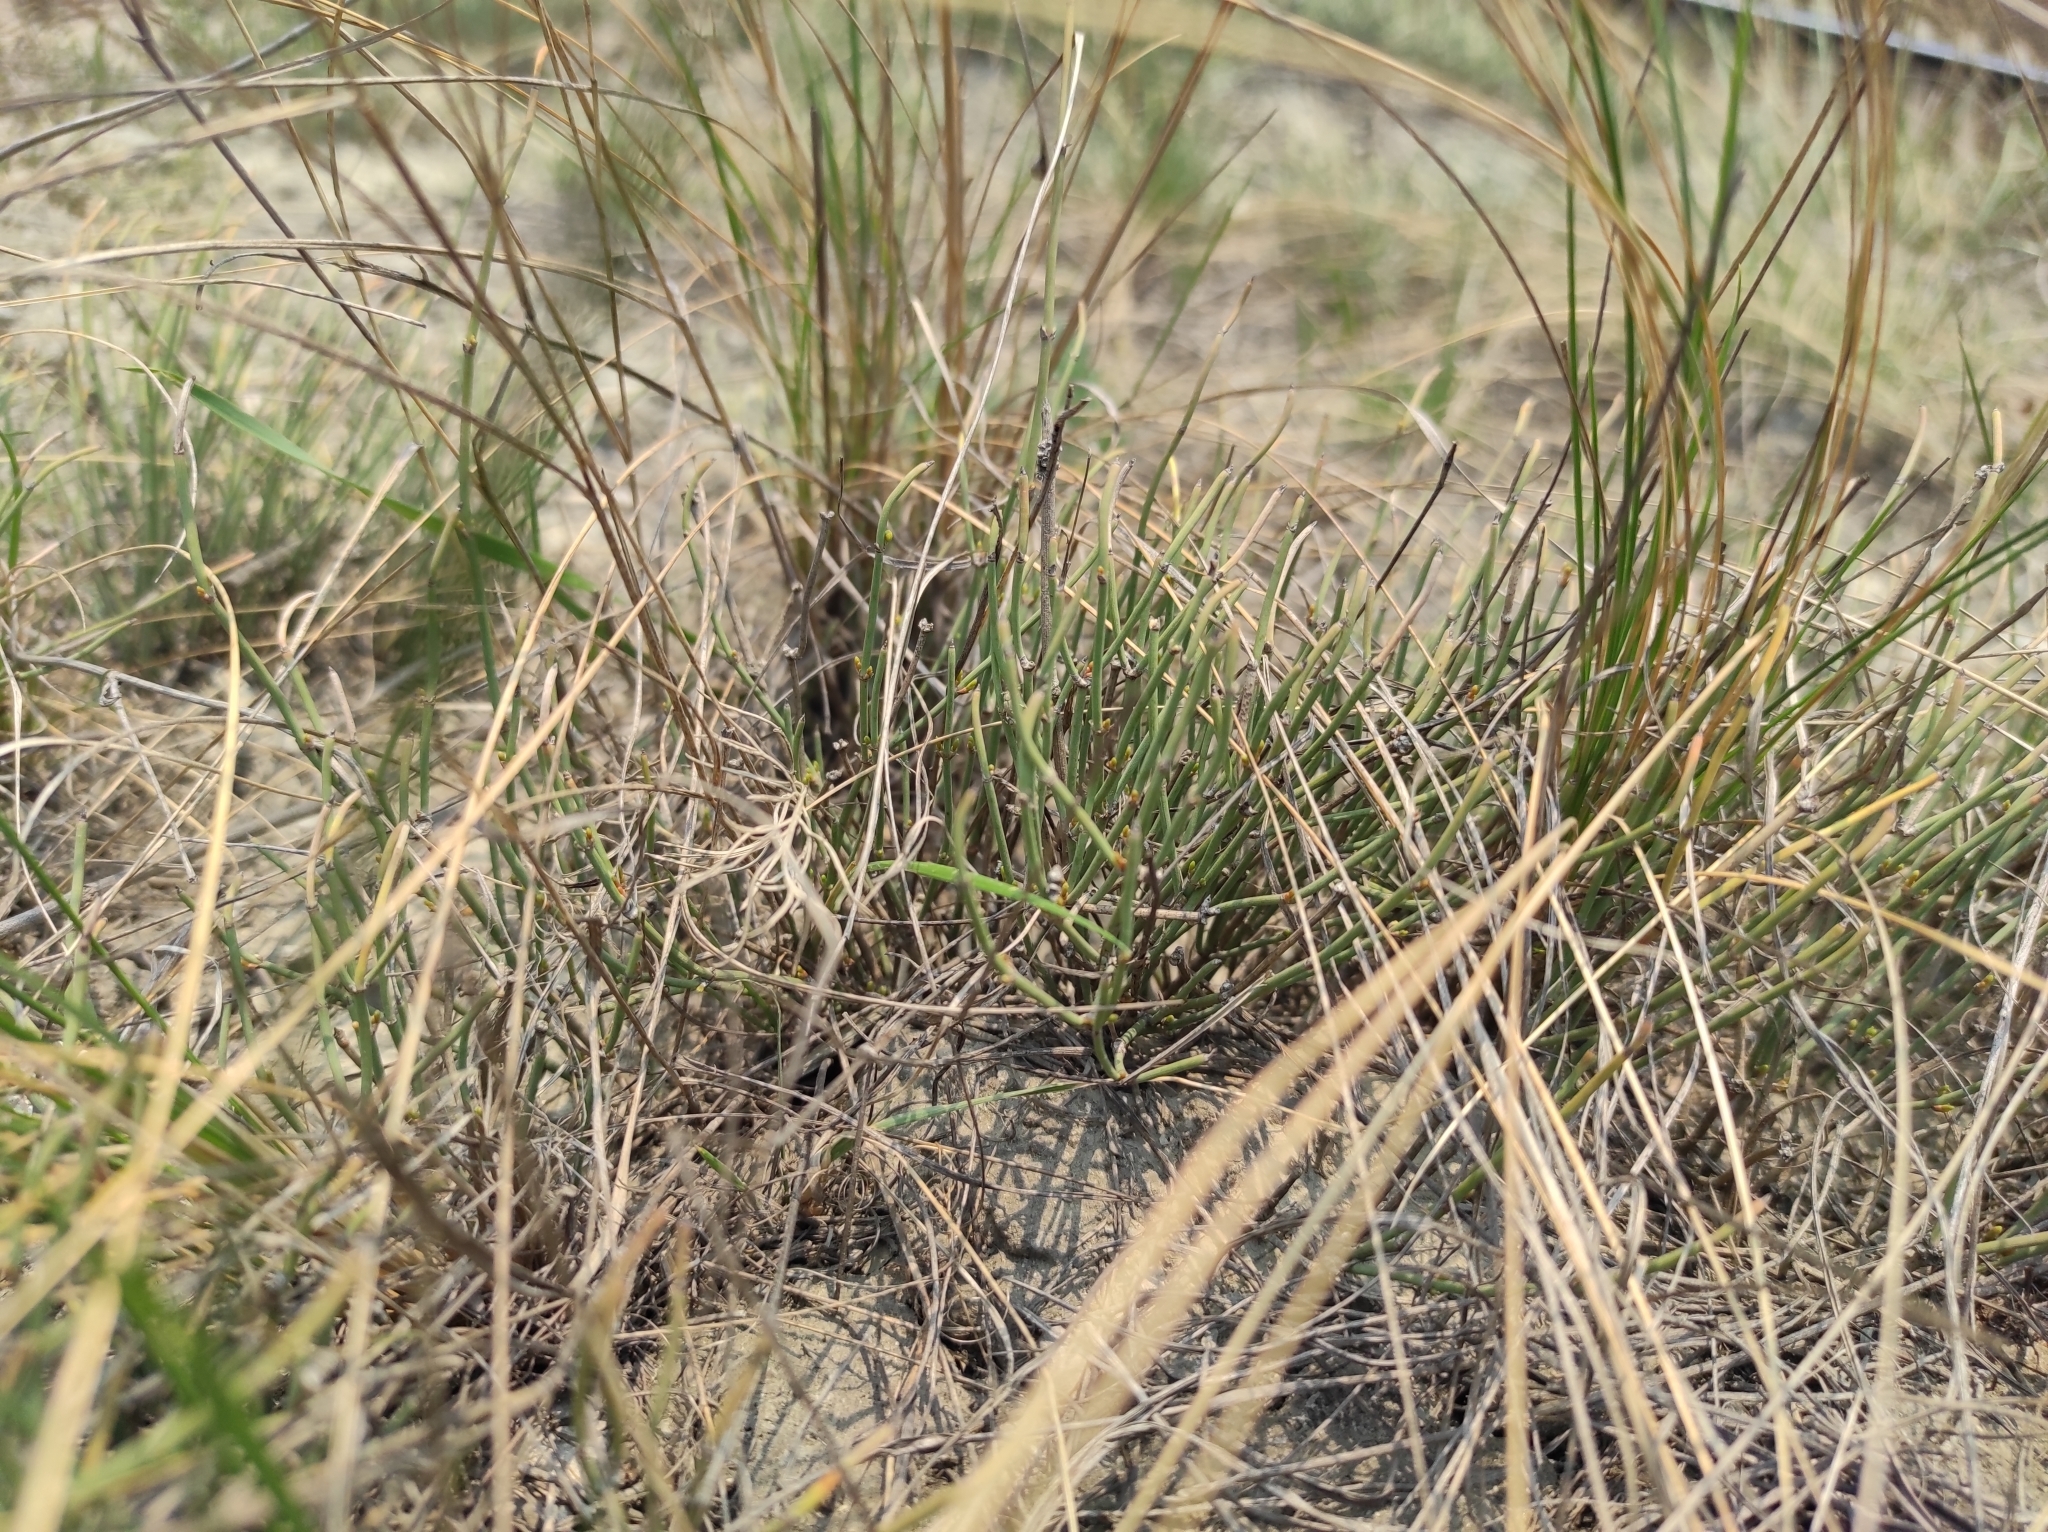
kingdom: Plantae
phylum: Tracheophyta
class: Gnetopsida
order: Ephedrales
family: Ephedraceae
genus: Ephedra
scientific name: Ephedra distachya
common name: Sea grape
